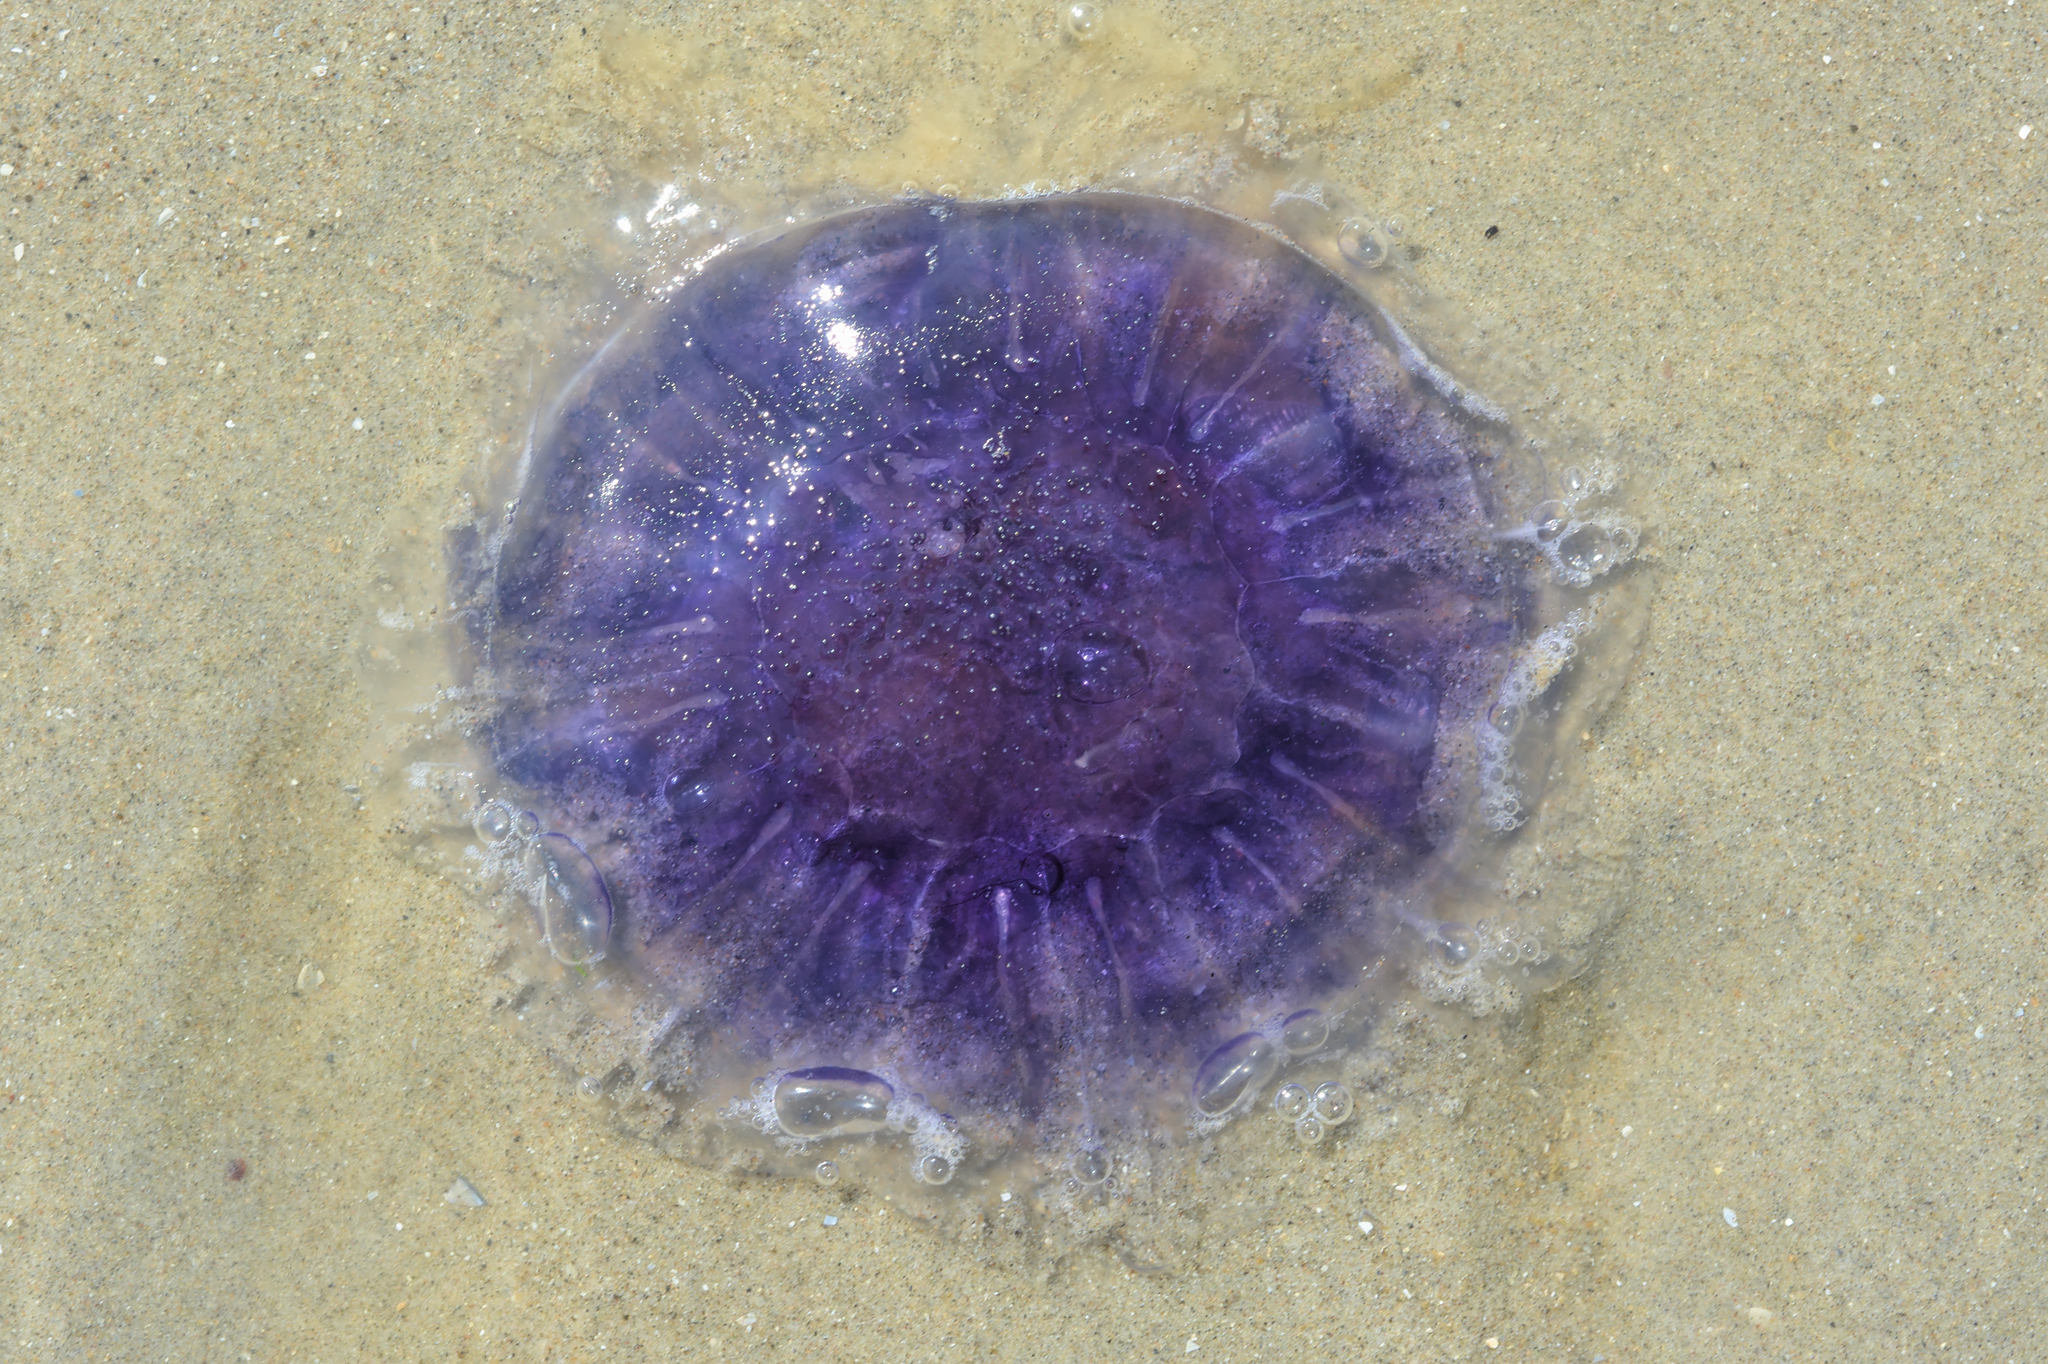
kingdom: Animalia
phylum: Cnidaria
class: Scyphozoa
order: Semaeostomeae
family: Cyaneidae
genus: Cyanea
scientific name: Cyanea lamarckii
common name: Blue jellyfish
